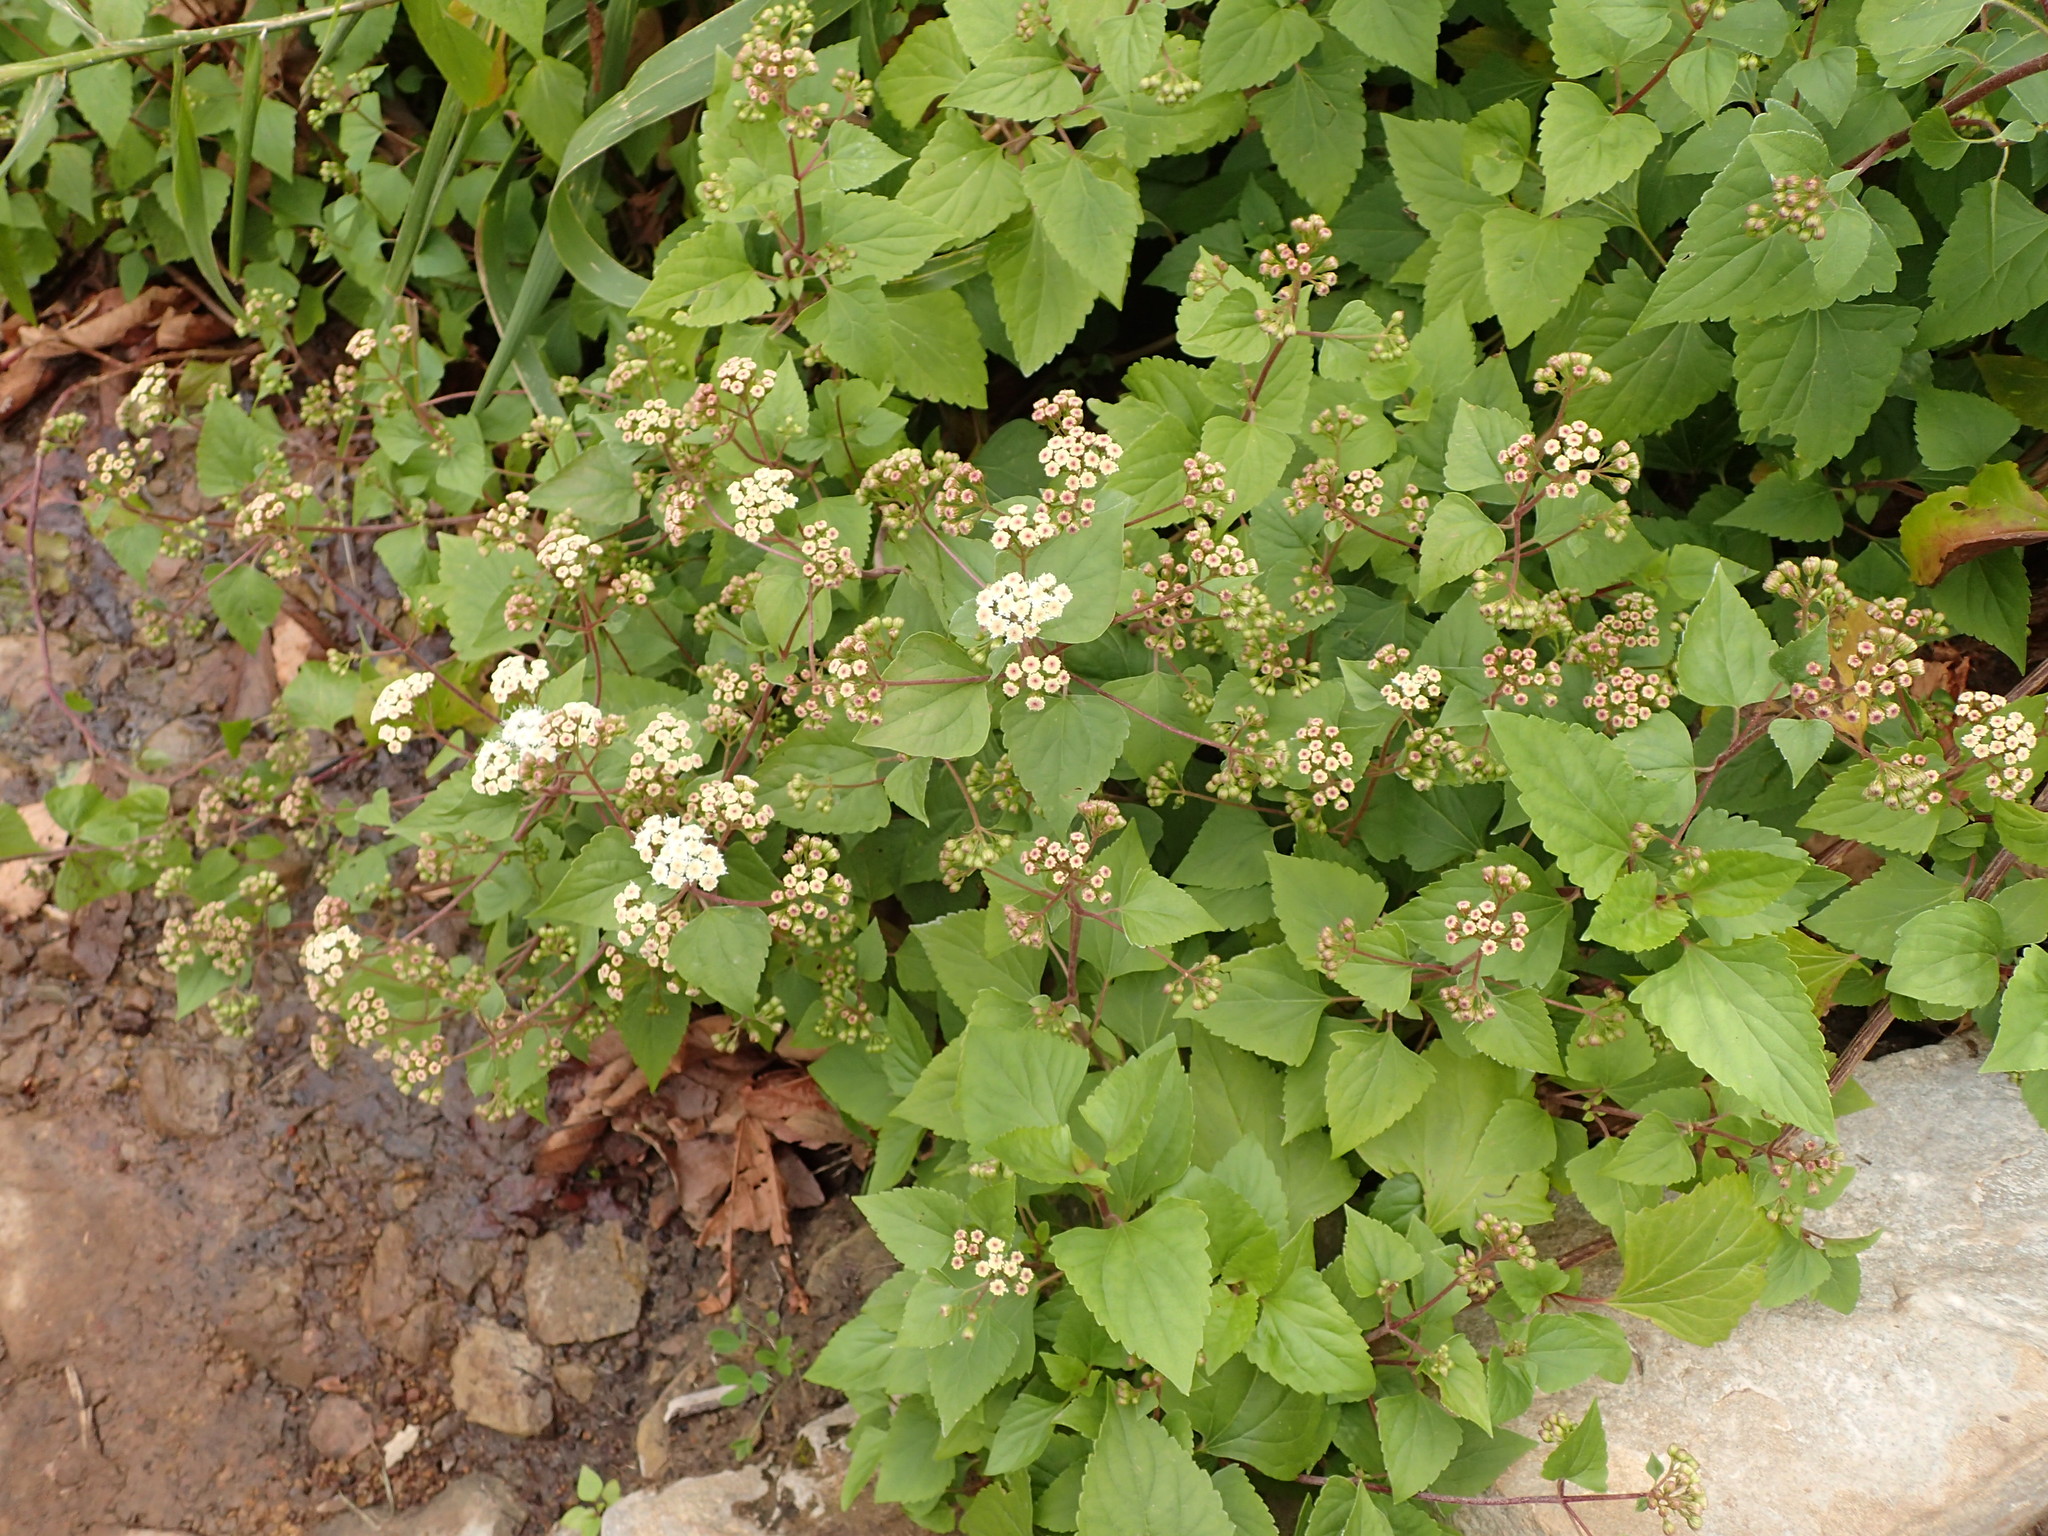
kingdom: Plantae
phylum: Tracheophyta
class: Magnoliopsida
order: Asterales
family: Asteraceae
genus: Ageratina
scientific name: Ageratina adenophora
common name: Sticky snakeroot
